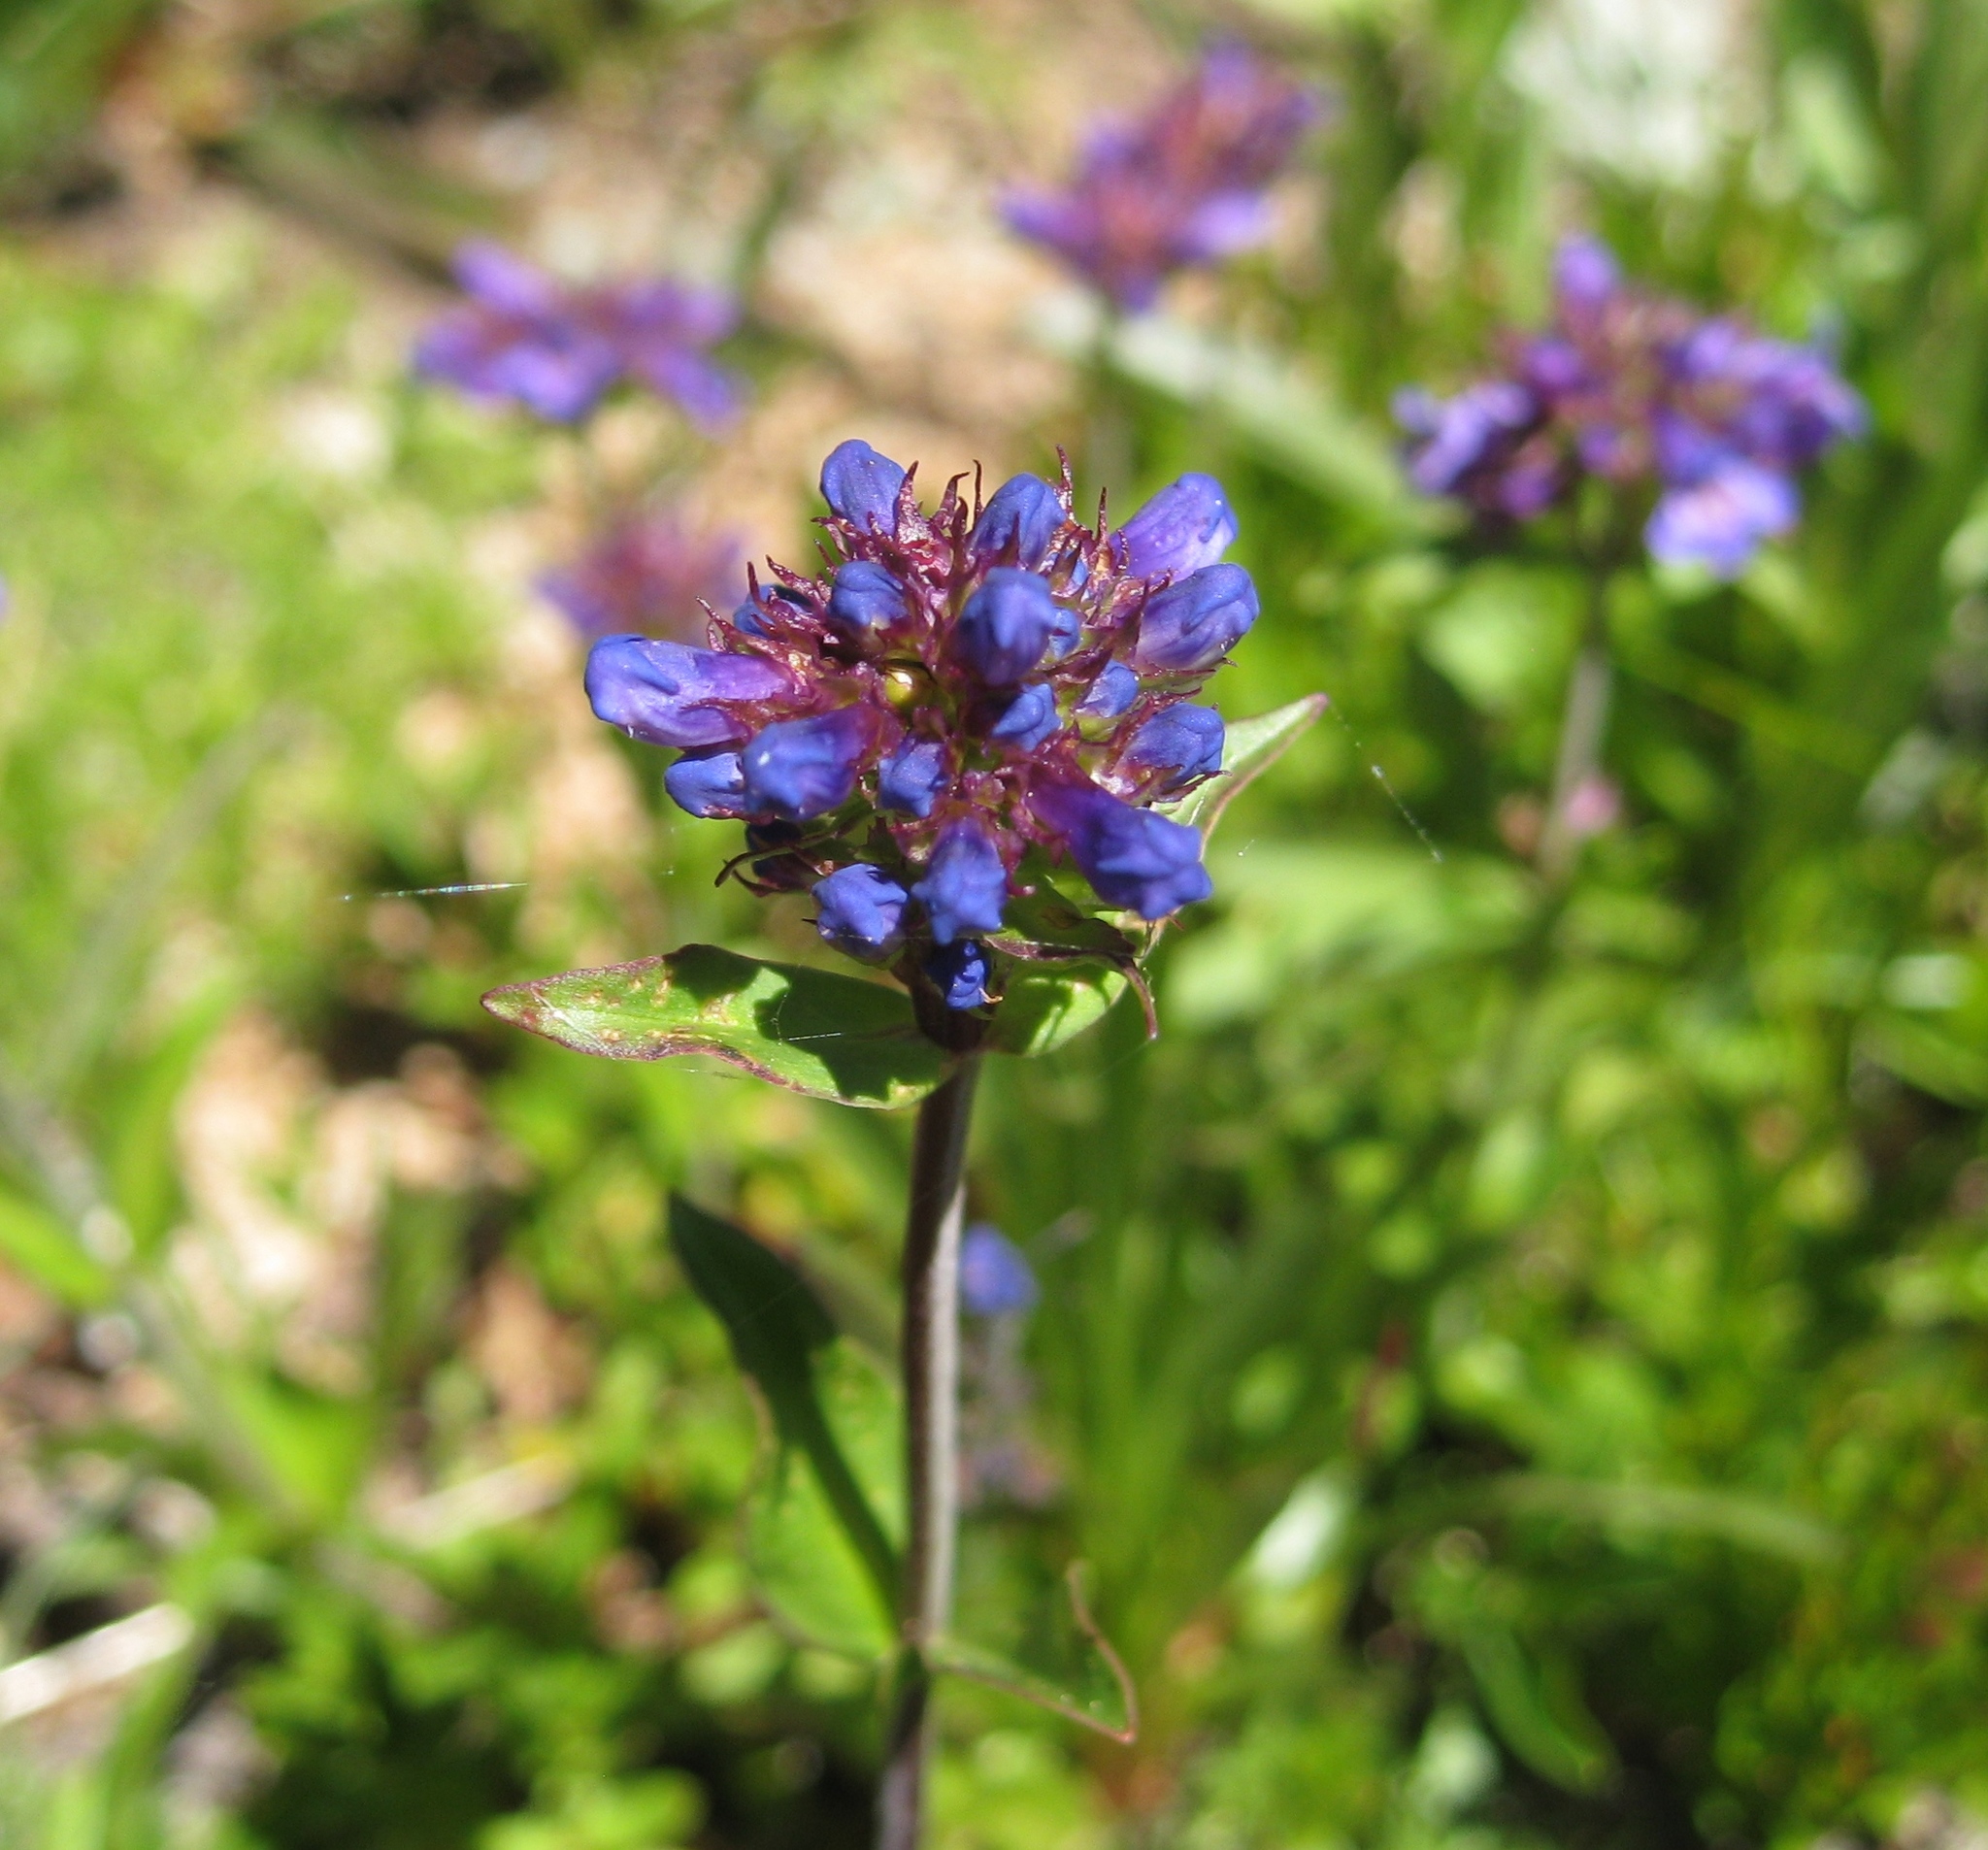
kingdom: Plantae
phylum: Tracheophyta
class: Magnoliopsida
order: Lamiales
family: Plantaginaceae
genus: Penstemon
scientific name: Penstemon procerus
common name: Small-flower penstemon
